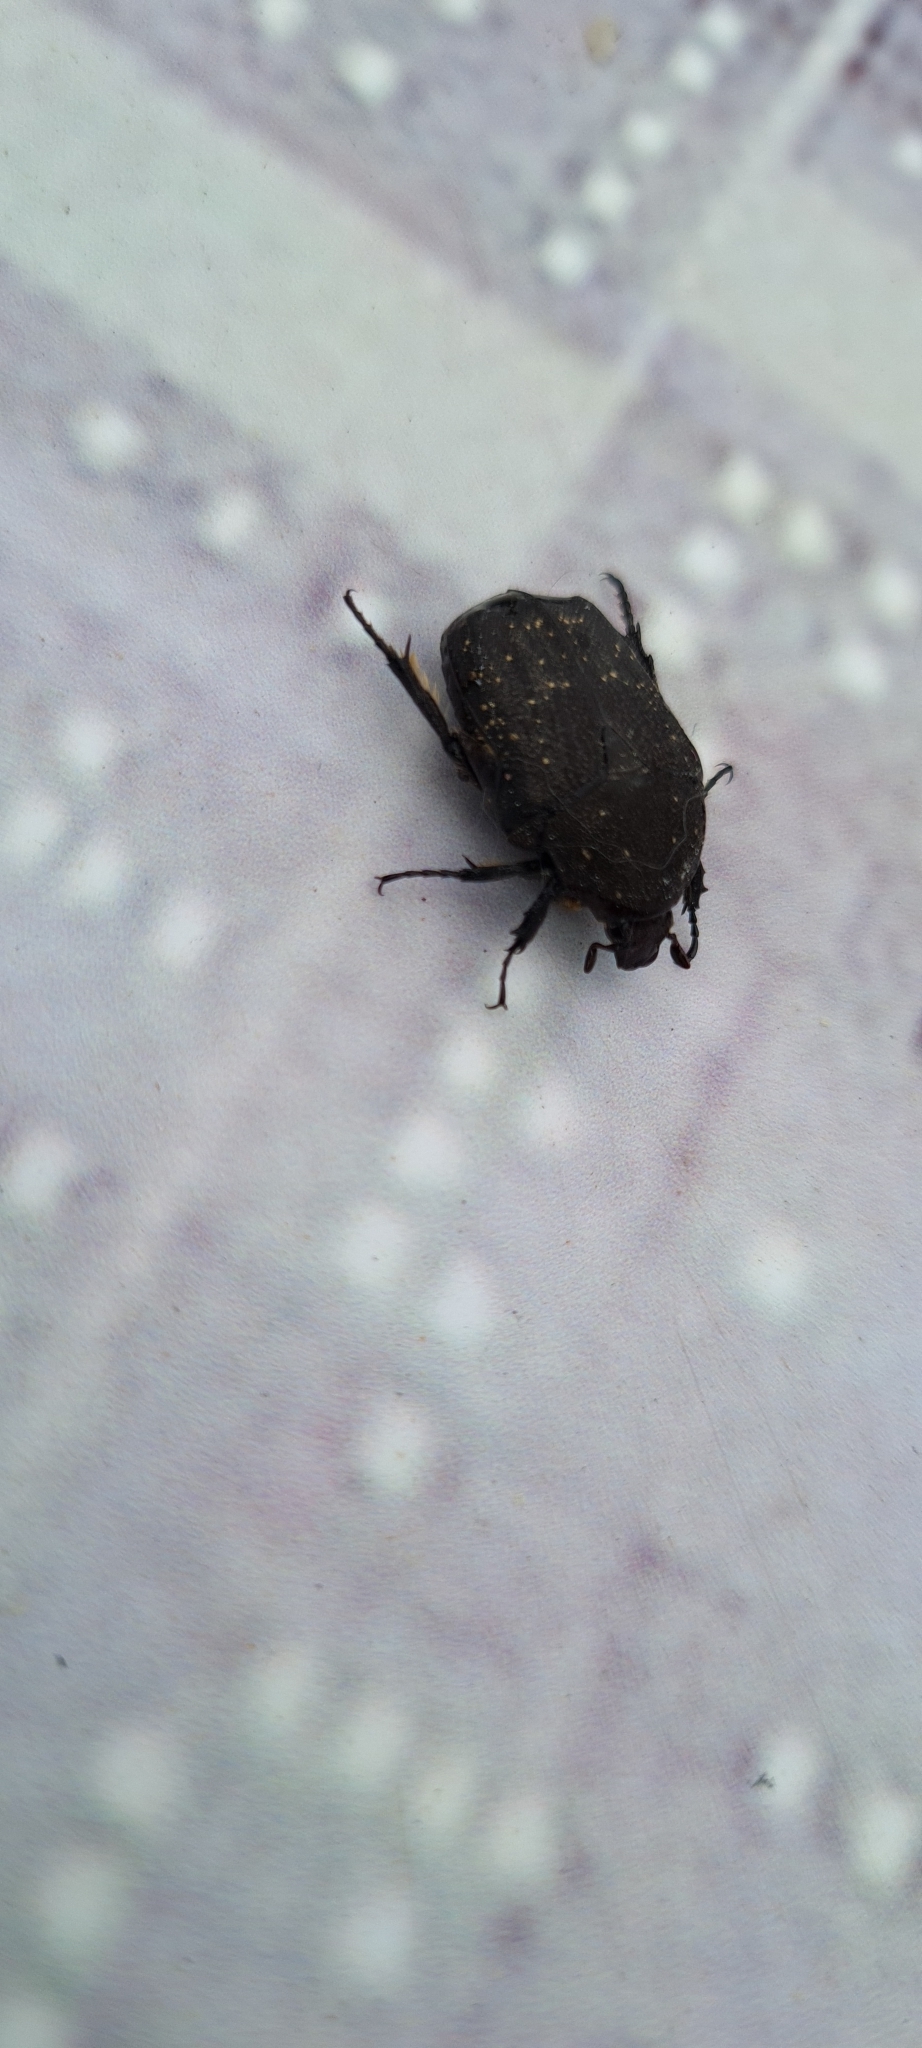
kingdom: Animalia
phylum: Arthropoda
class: Insecta
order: Coleoptera
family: Scarabaeidae
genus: Protaetia
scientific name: Protaetia morio
